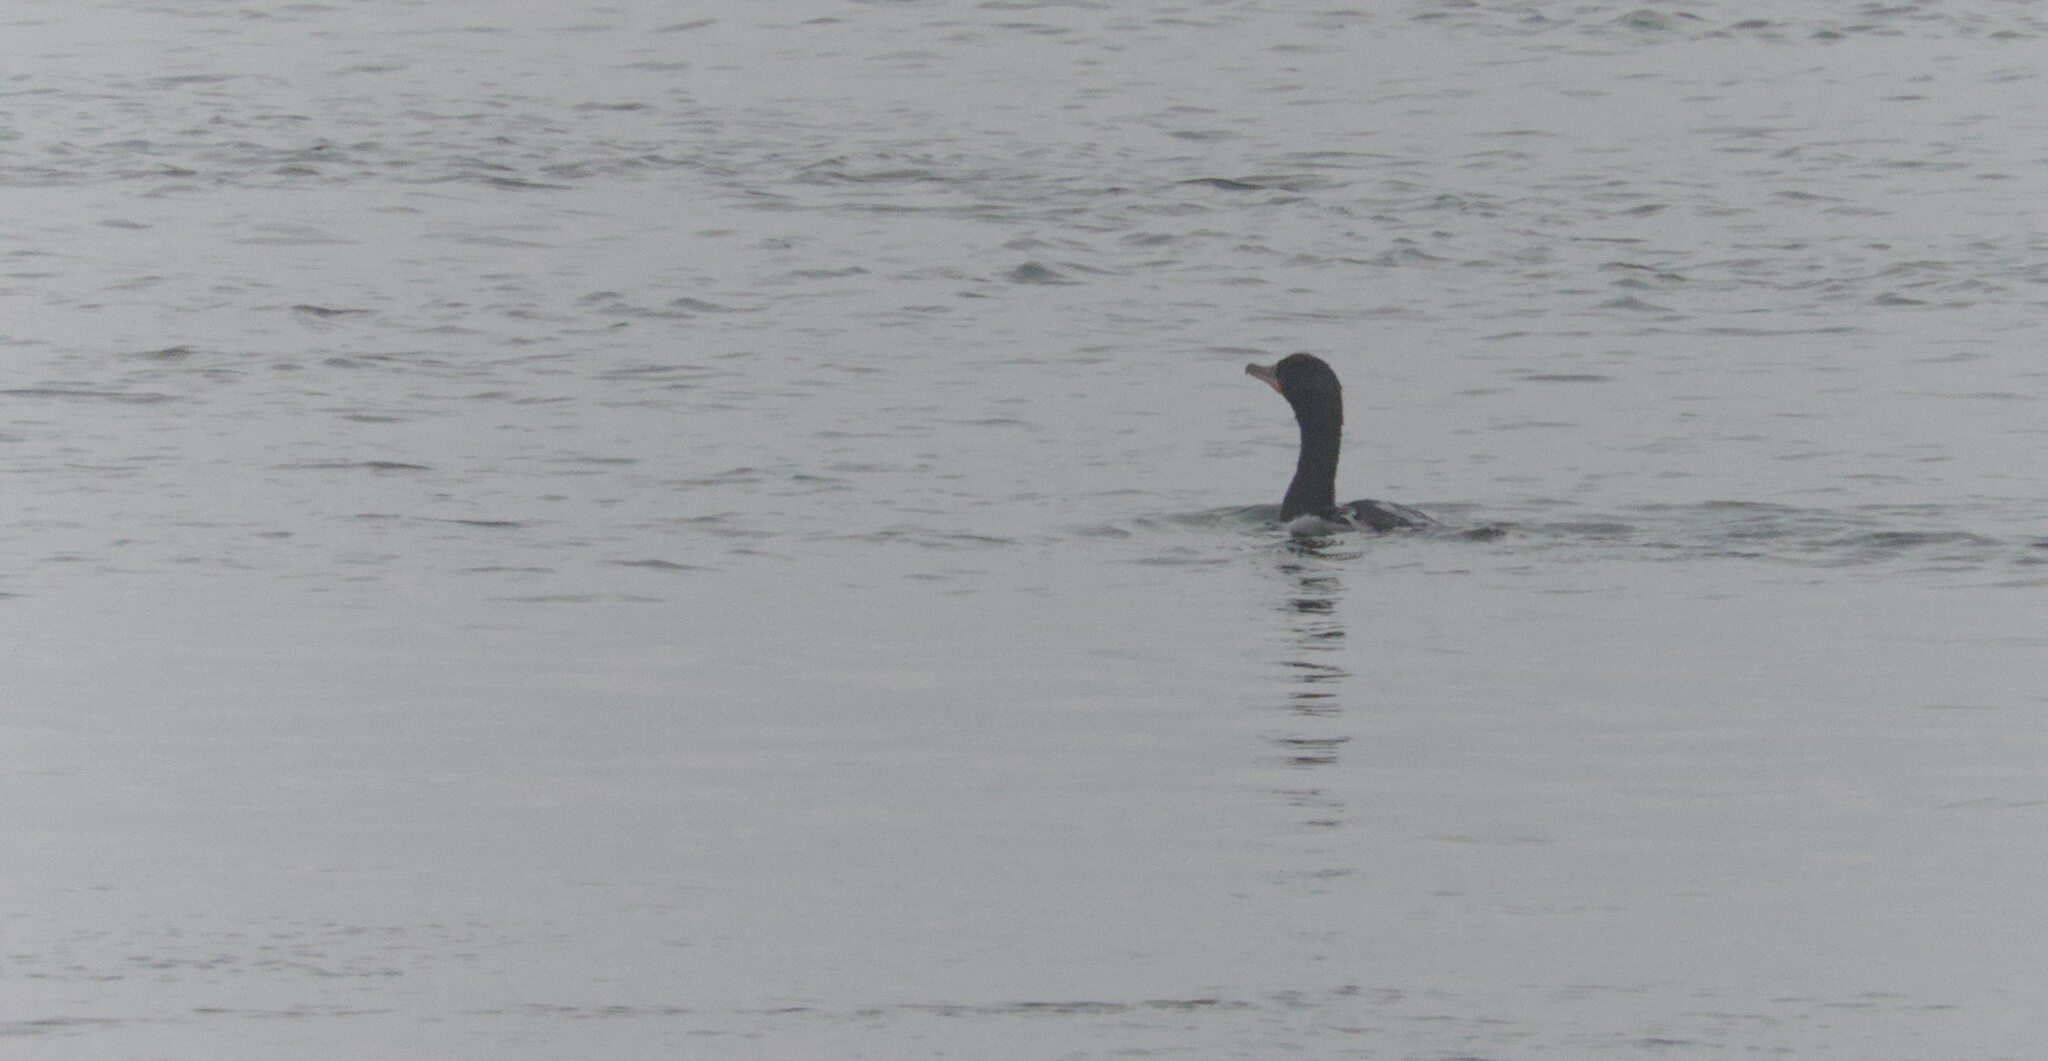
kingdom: Animalia
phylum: Chordata
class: Aves
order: Suliformes
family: Phalacrocoracidae
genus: Phalacrocorax
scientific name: Phalacrocorax auritus
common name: Double-crested cormorant
